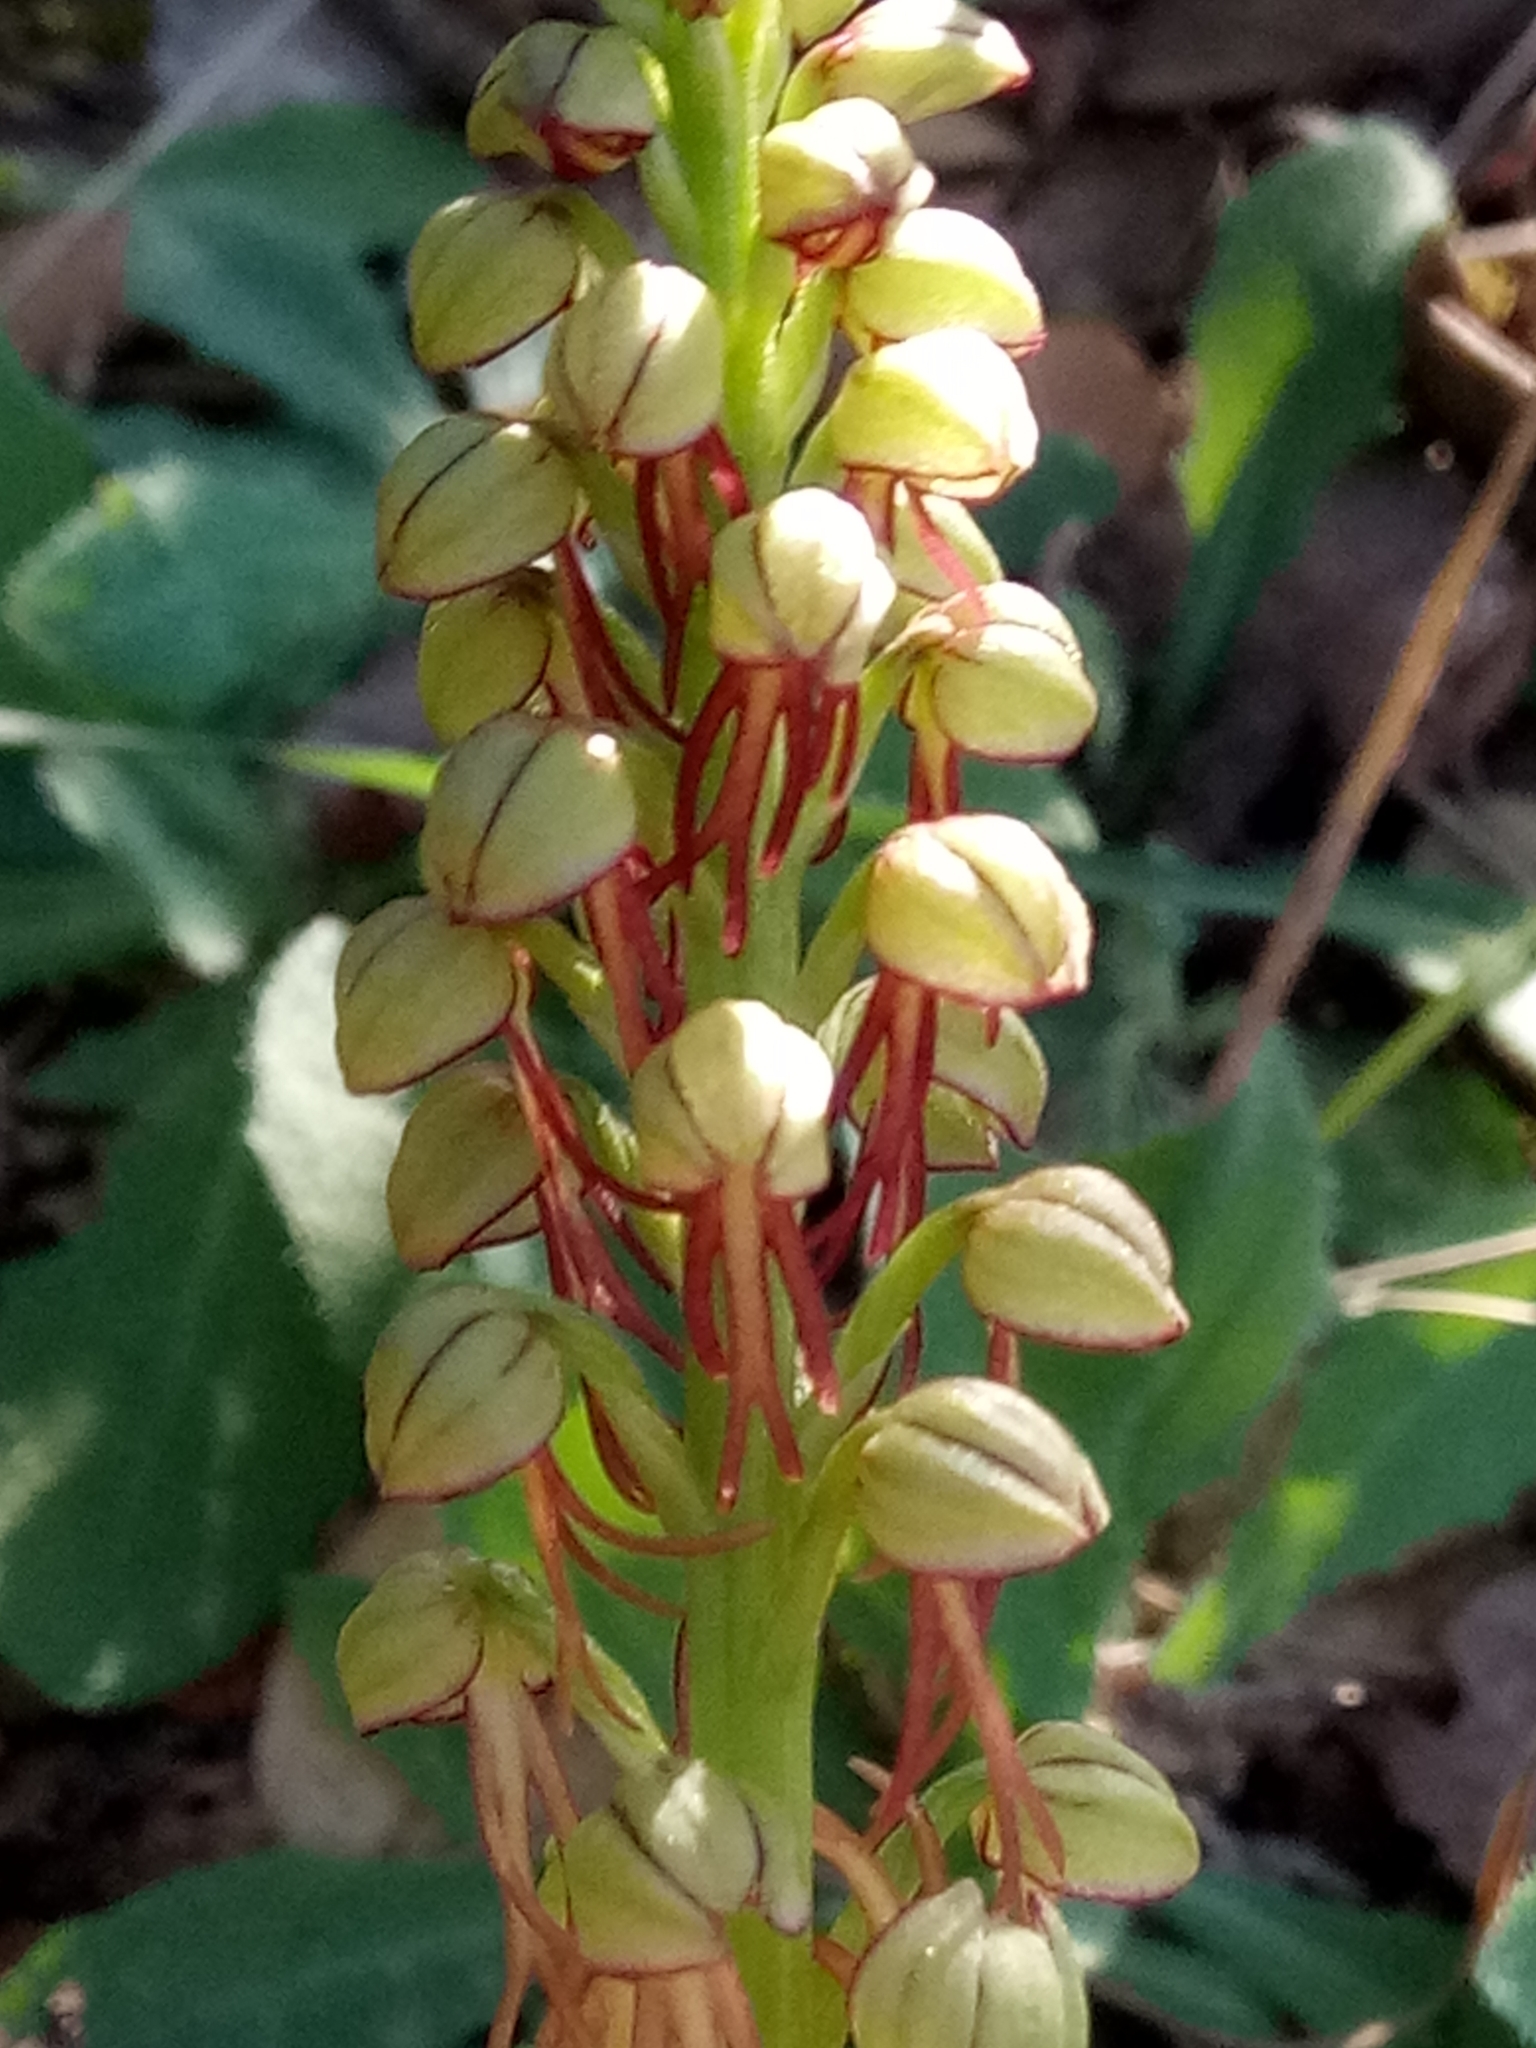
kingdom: Plantae
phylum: Tracheophyta
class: Liliopsida
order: Asparagales
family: Orchidaceae
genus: Orchis
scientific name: Orchis anthropophora
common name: Man orchid
